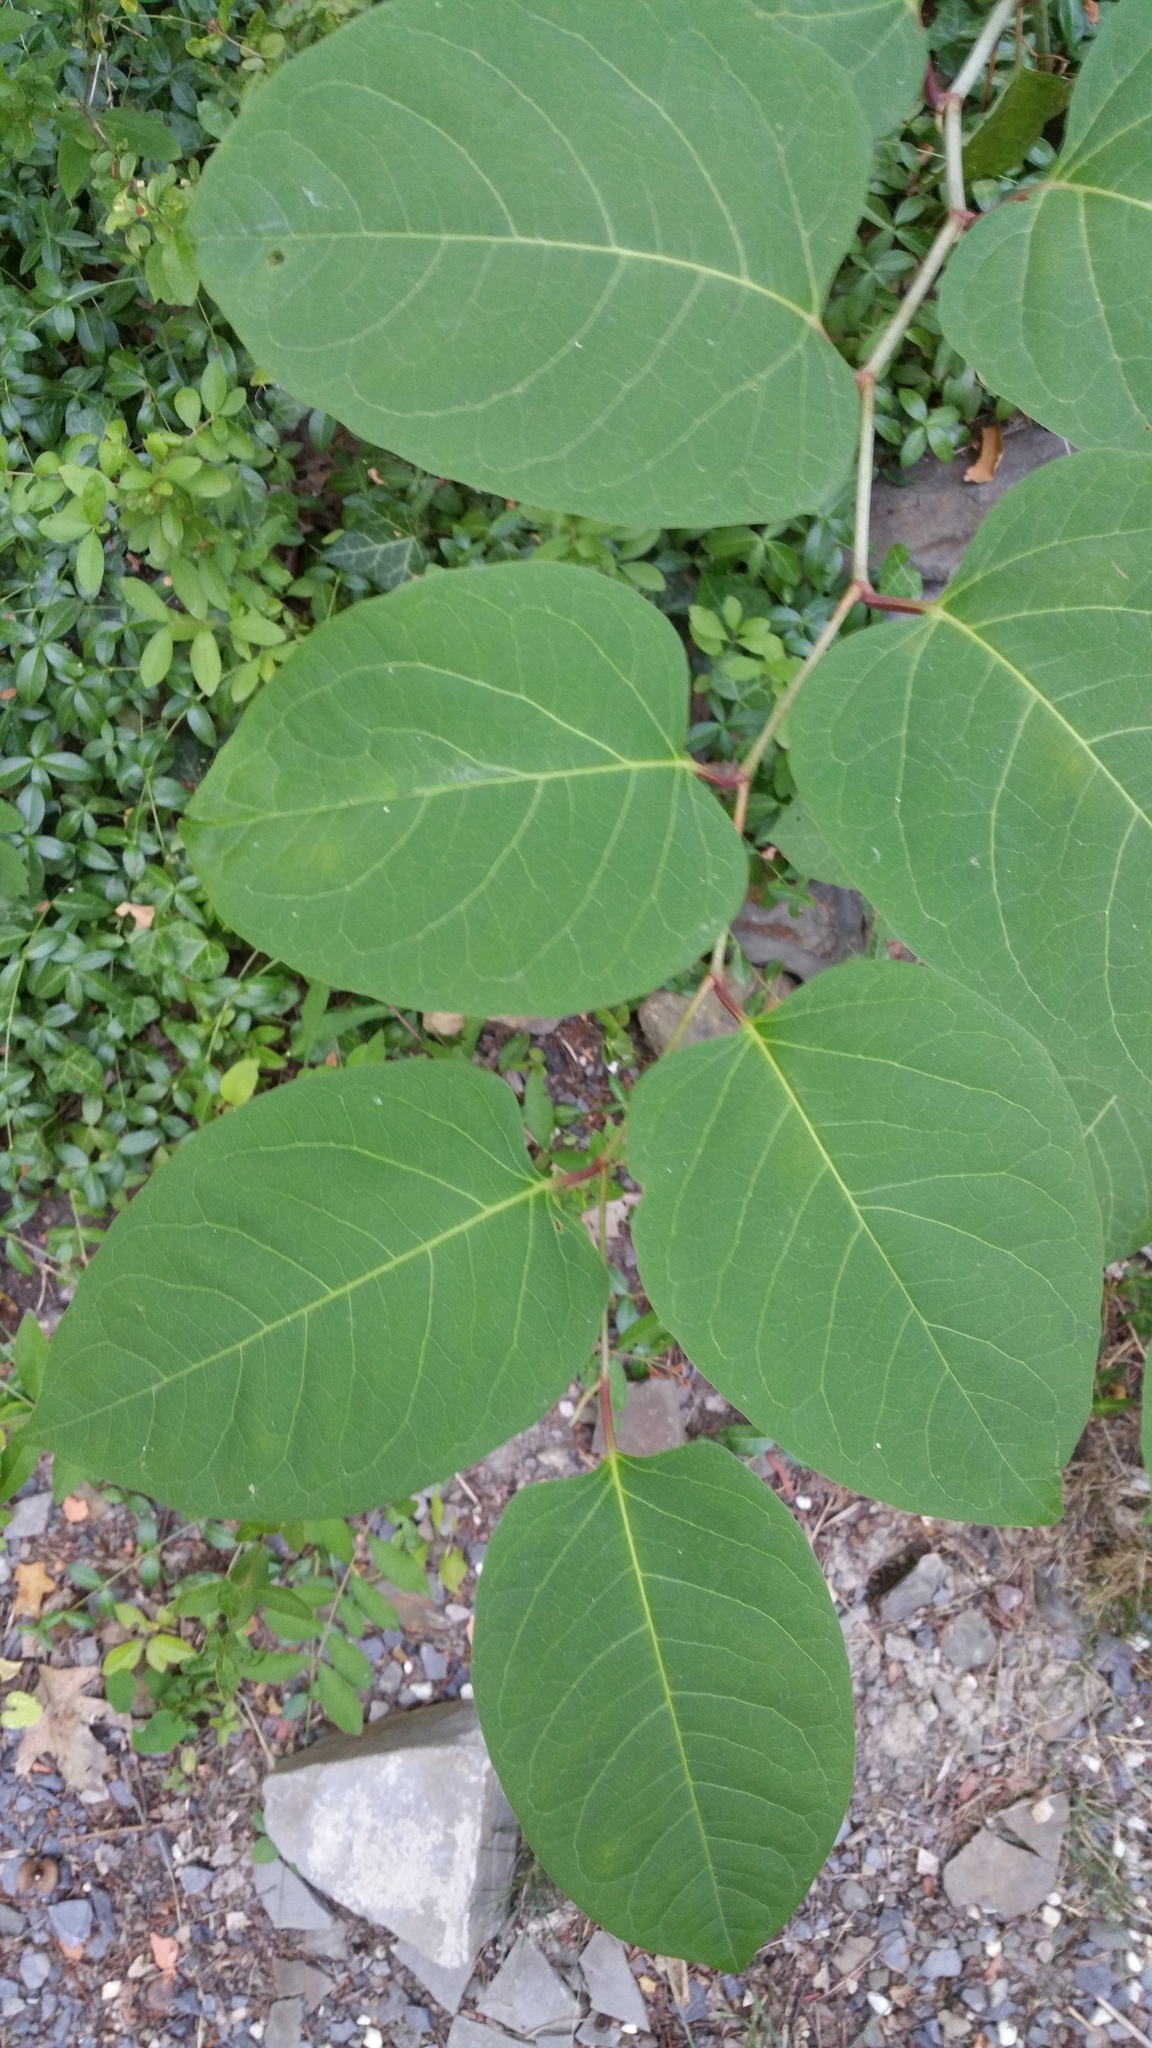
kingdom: Plantae
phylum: Tracheophyta
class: Magnoliopsida
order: Caryophyllales
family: Polygonaceae
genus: Reynoutria
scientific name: Reynoutria japonica
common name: Japanese knotweed
